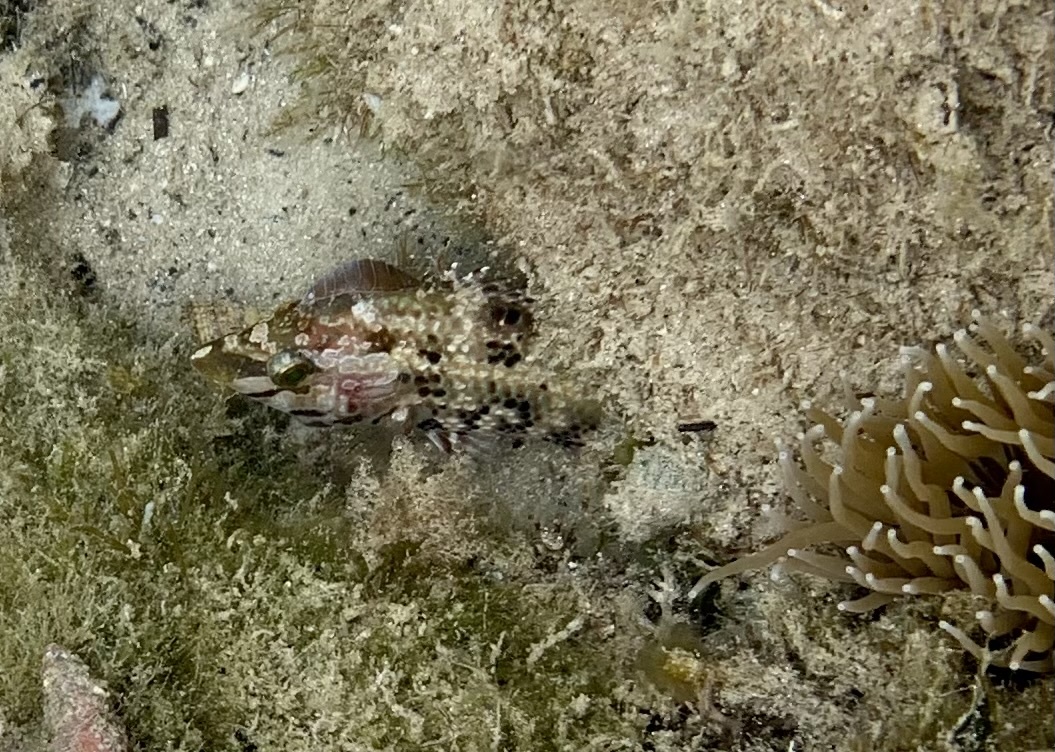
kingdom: Animalia
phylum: Chordata
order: Perciformes
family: Labridae
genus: Symphodus
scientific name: Symphodus roissali
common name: Five-spotted wrasse
